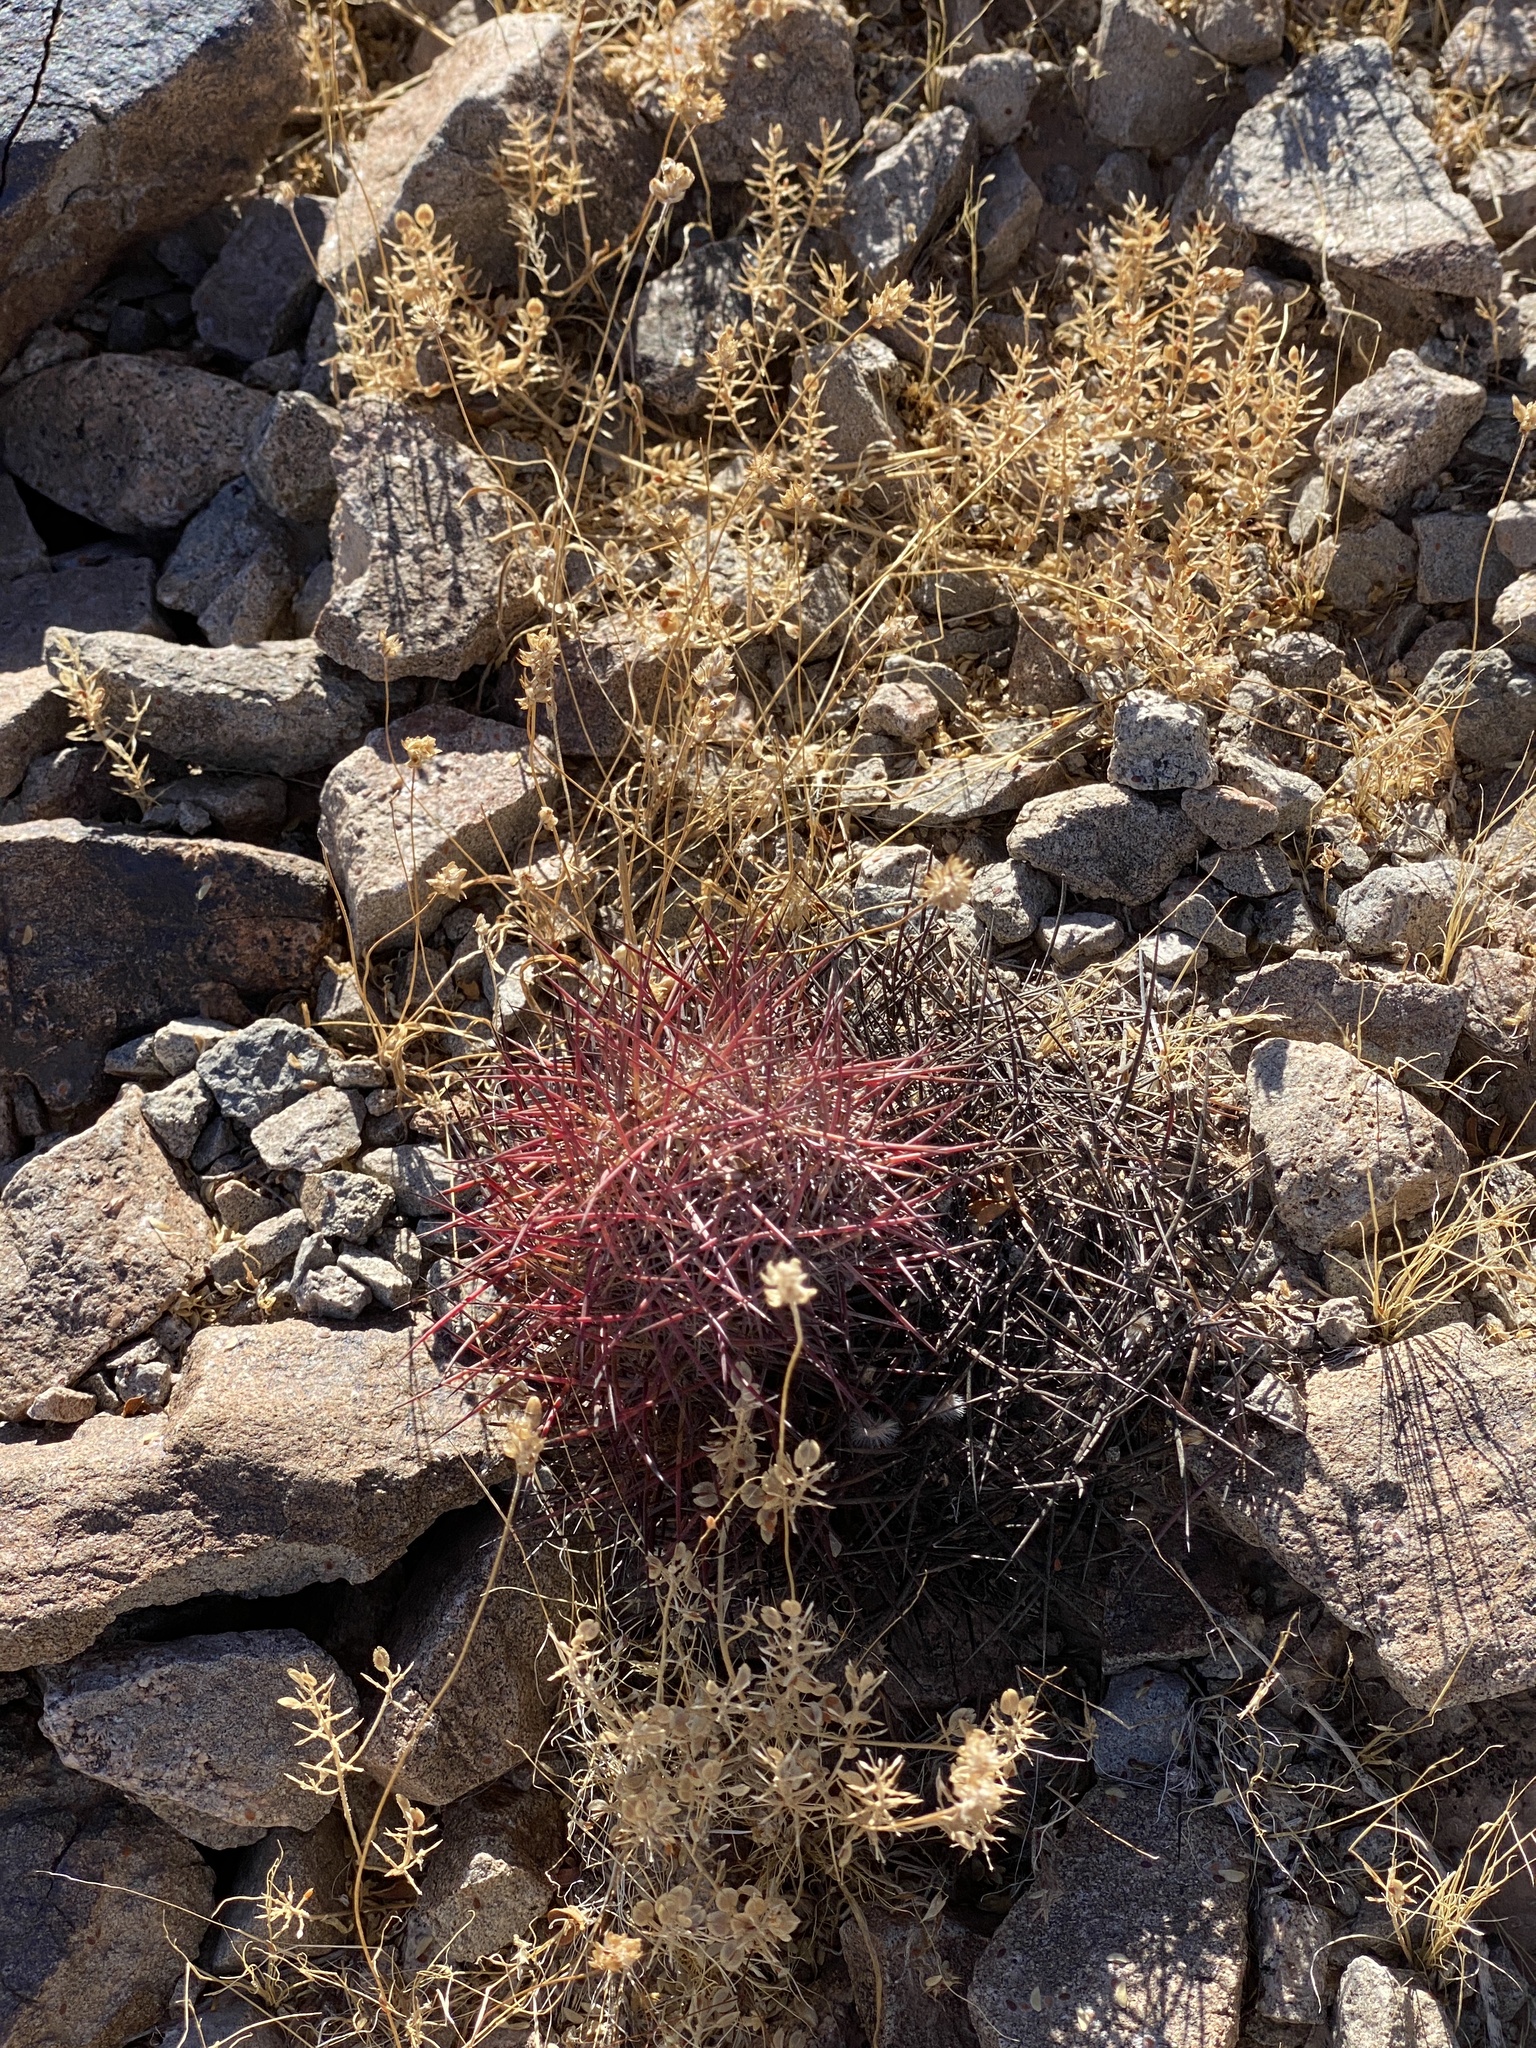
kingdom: Plantae
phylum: Tracheophyta
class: Magnoliopsida
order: Caryophyllales
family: Cactaceae
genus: Sclerocactus
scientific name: Sclerocactus johnsonii
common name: Eight-spine fishhook cactus
